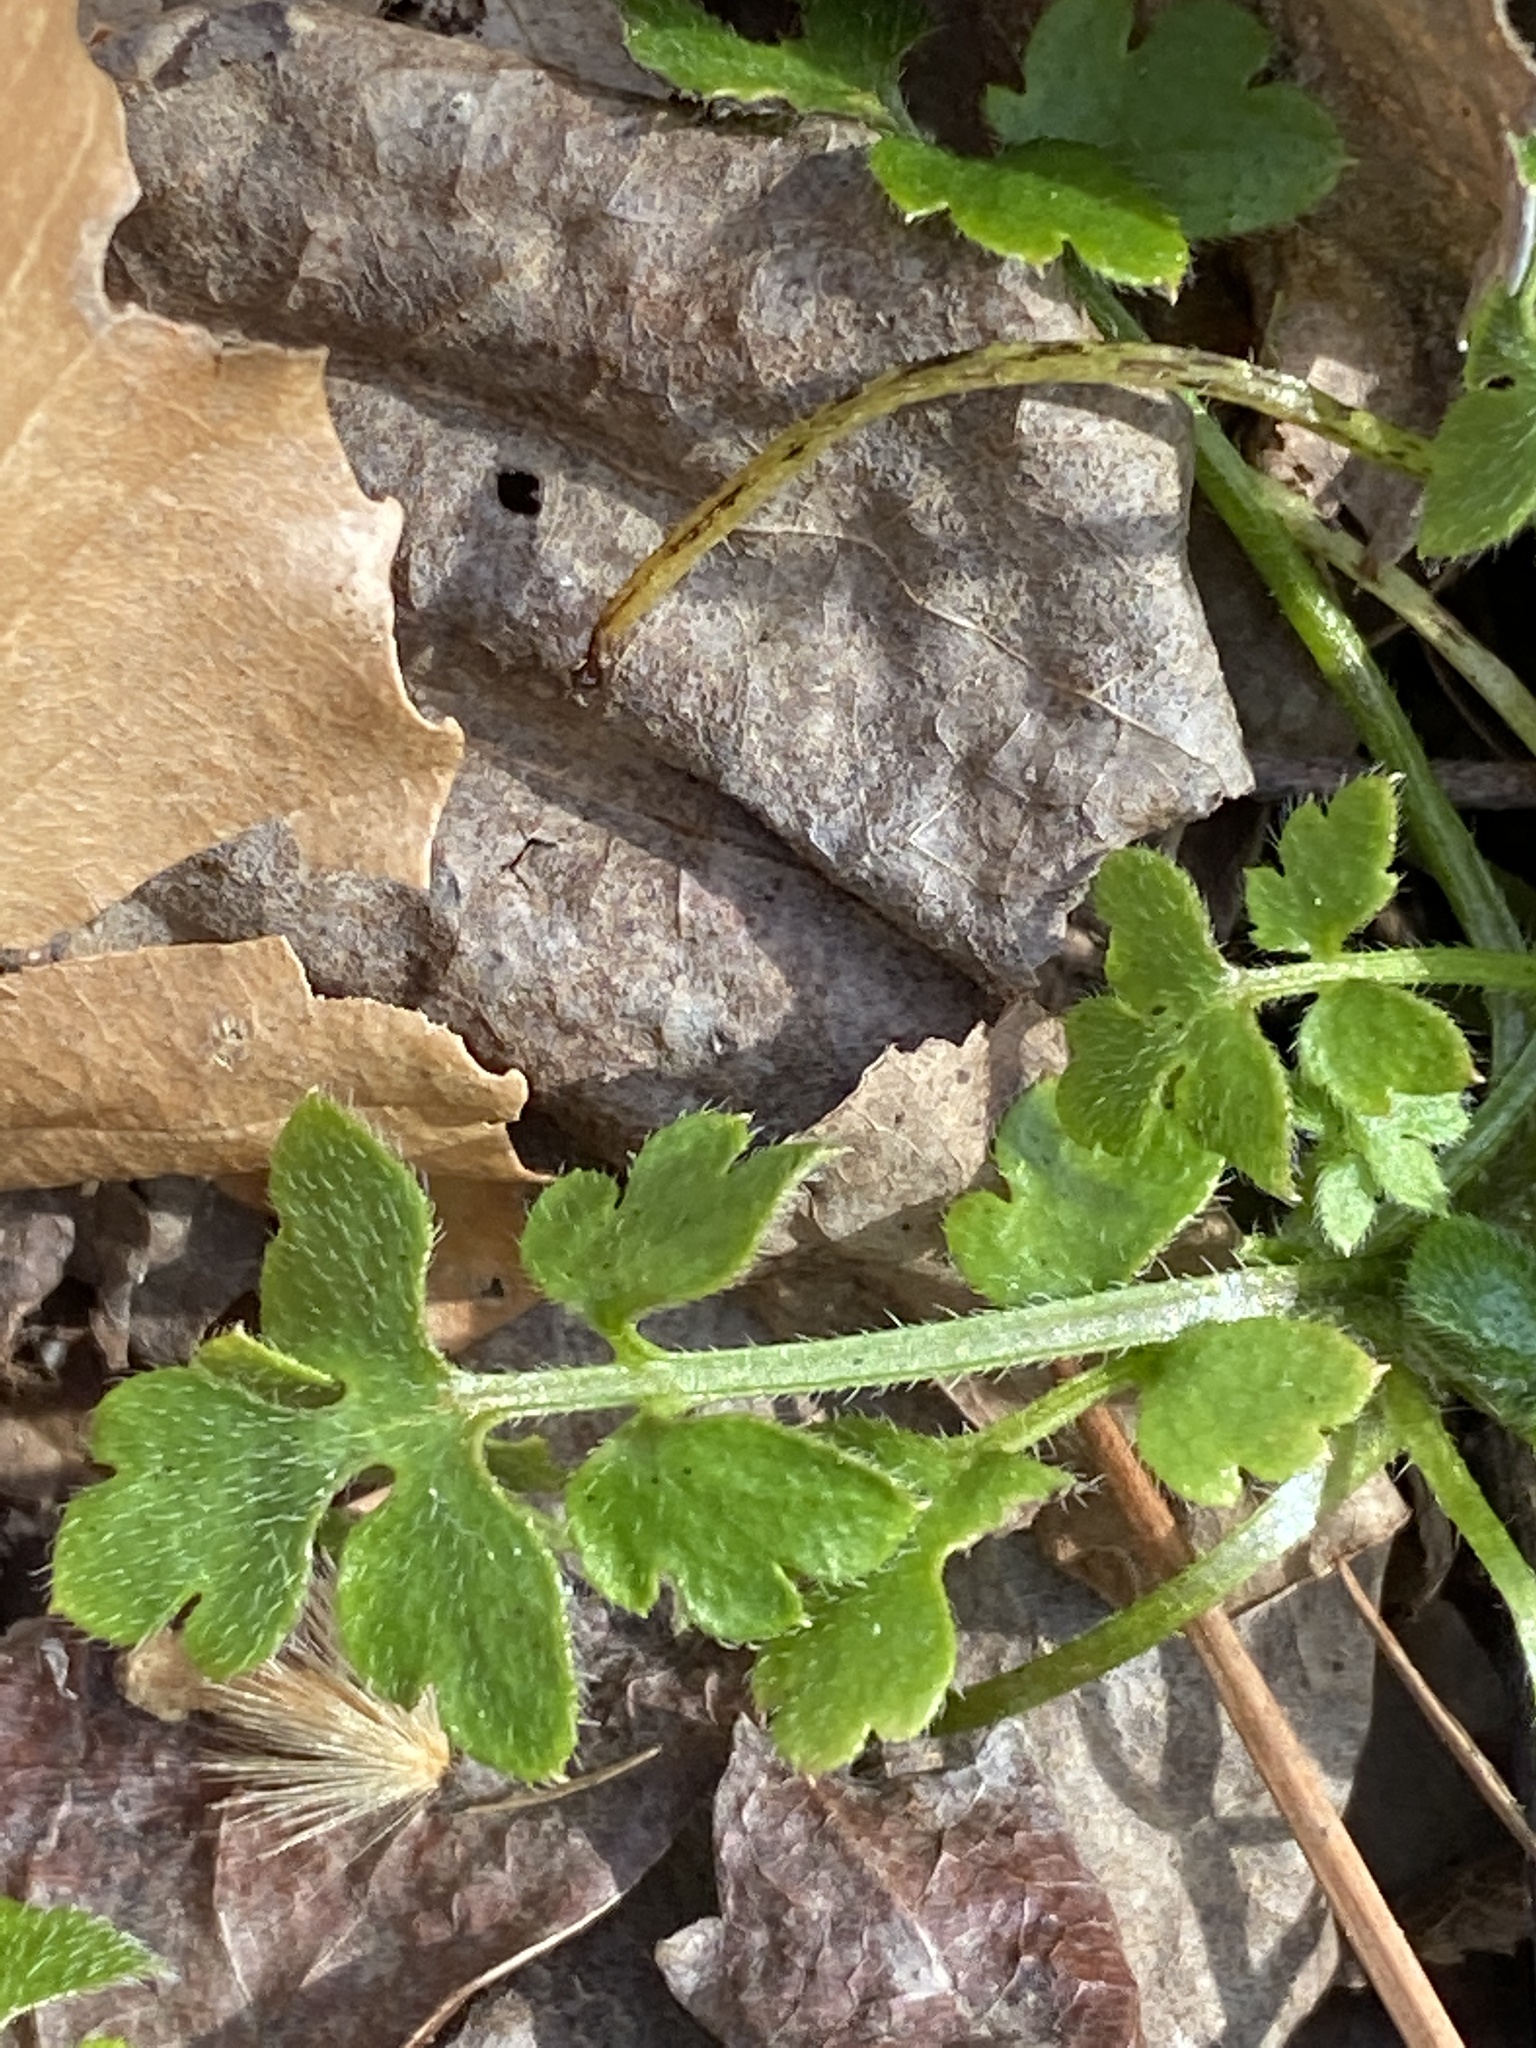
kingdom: Plantae
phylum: Tracheophyta
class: Magnoliopsida
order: Boraginales
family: Hydrophyllaceae
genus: Nemophila
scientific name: Nemophila aphylla
